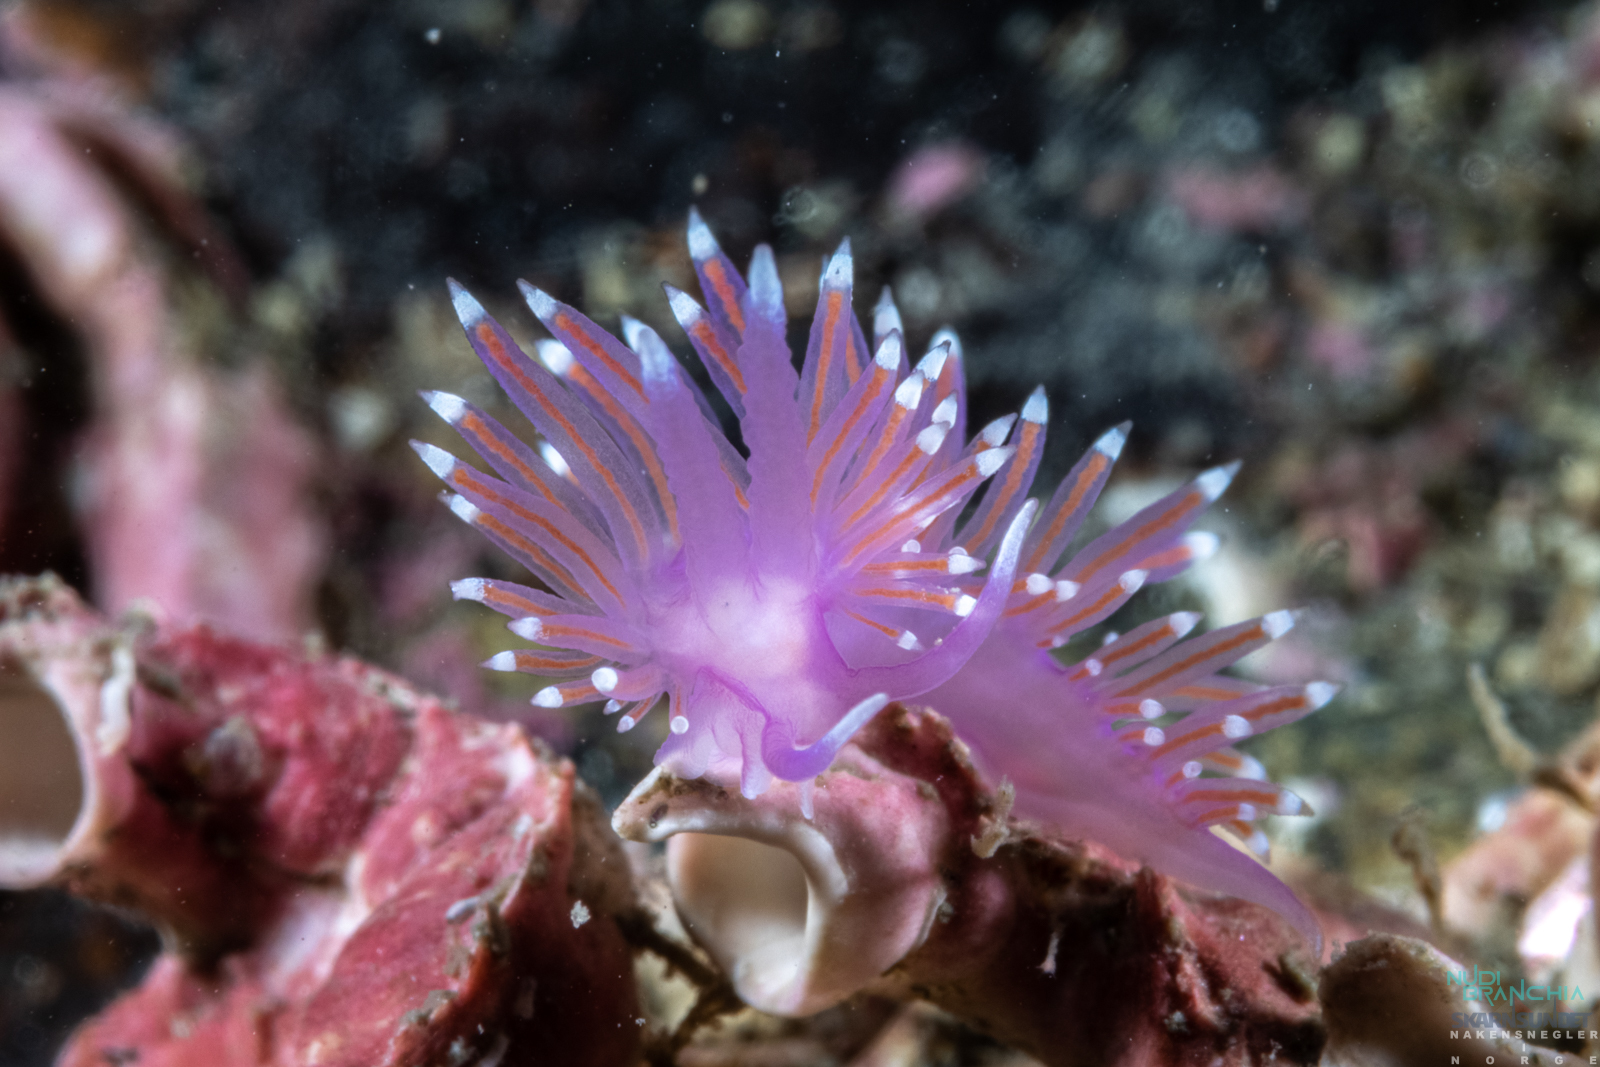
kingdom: Animalia
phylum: Mollusca
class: Gastropoda
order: Nudibranchia
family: Flabellinidae
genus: Edmundsella
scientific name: Edmundsella pedata
